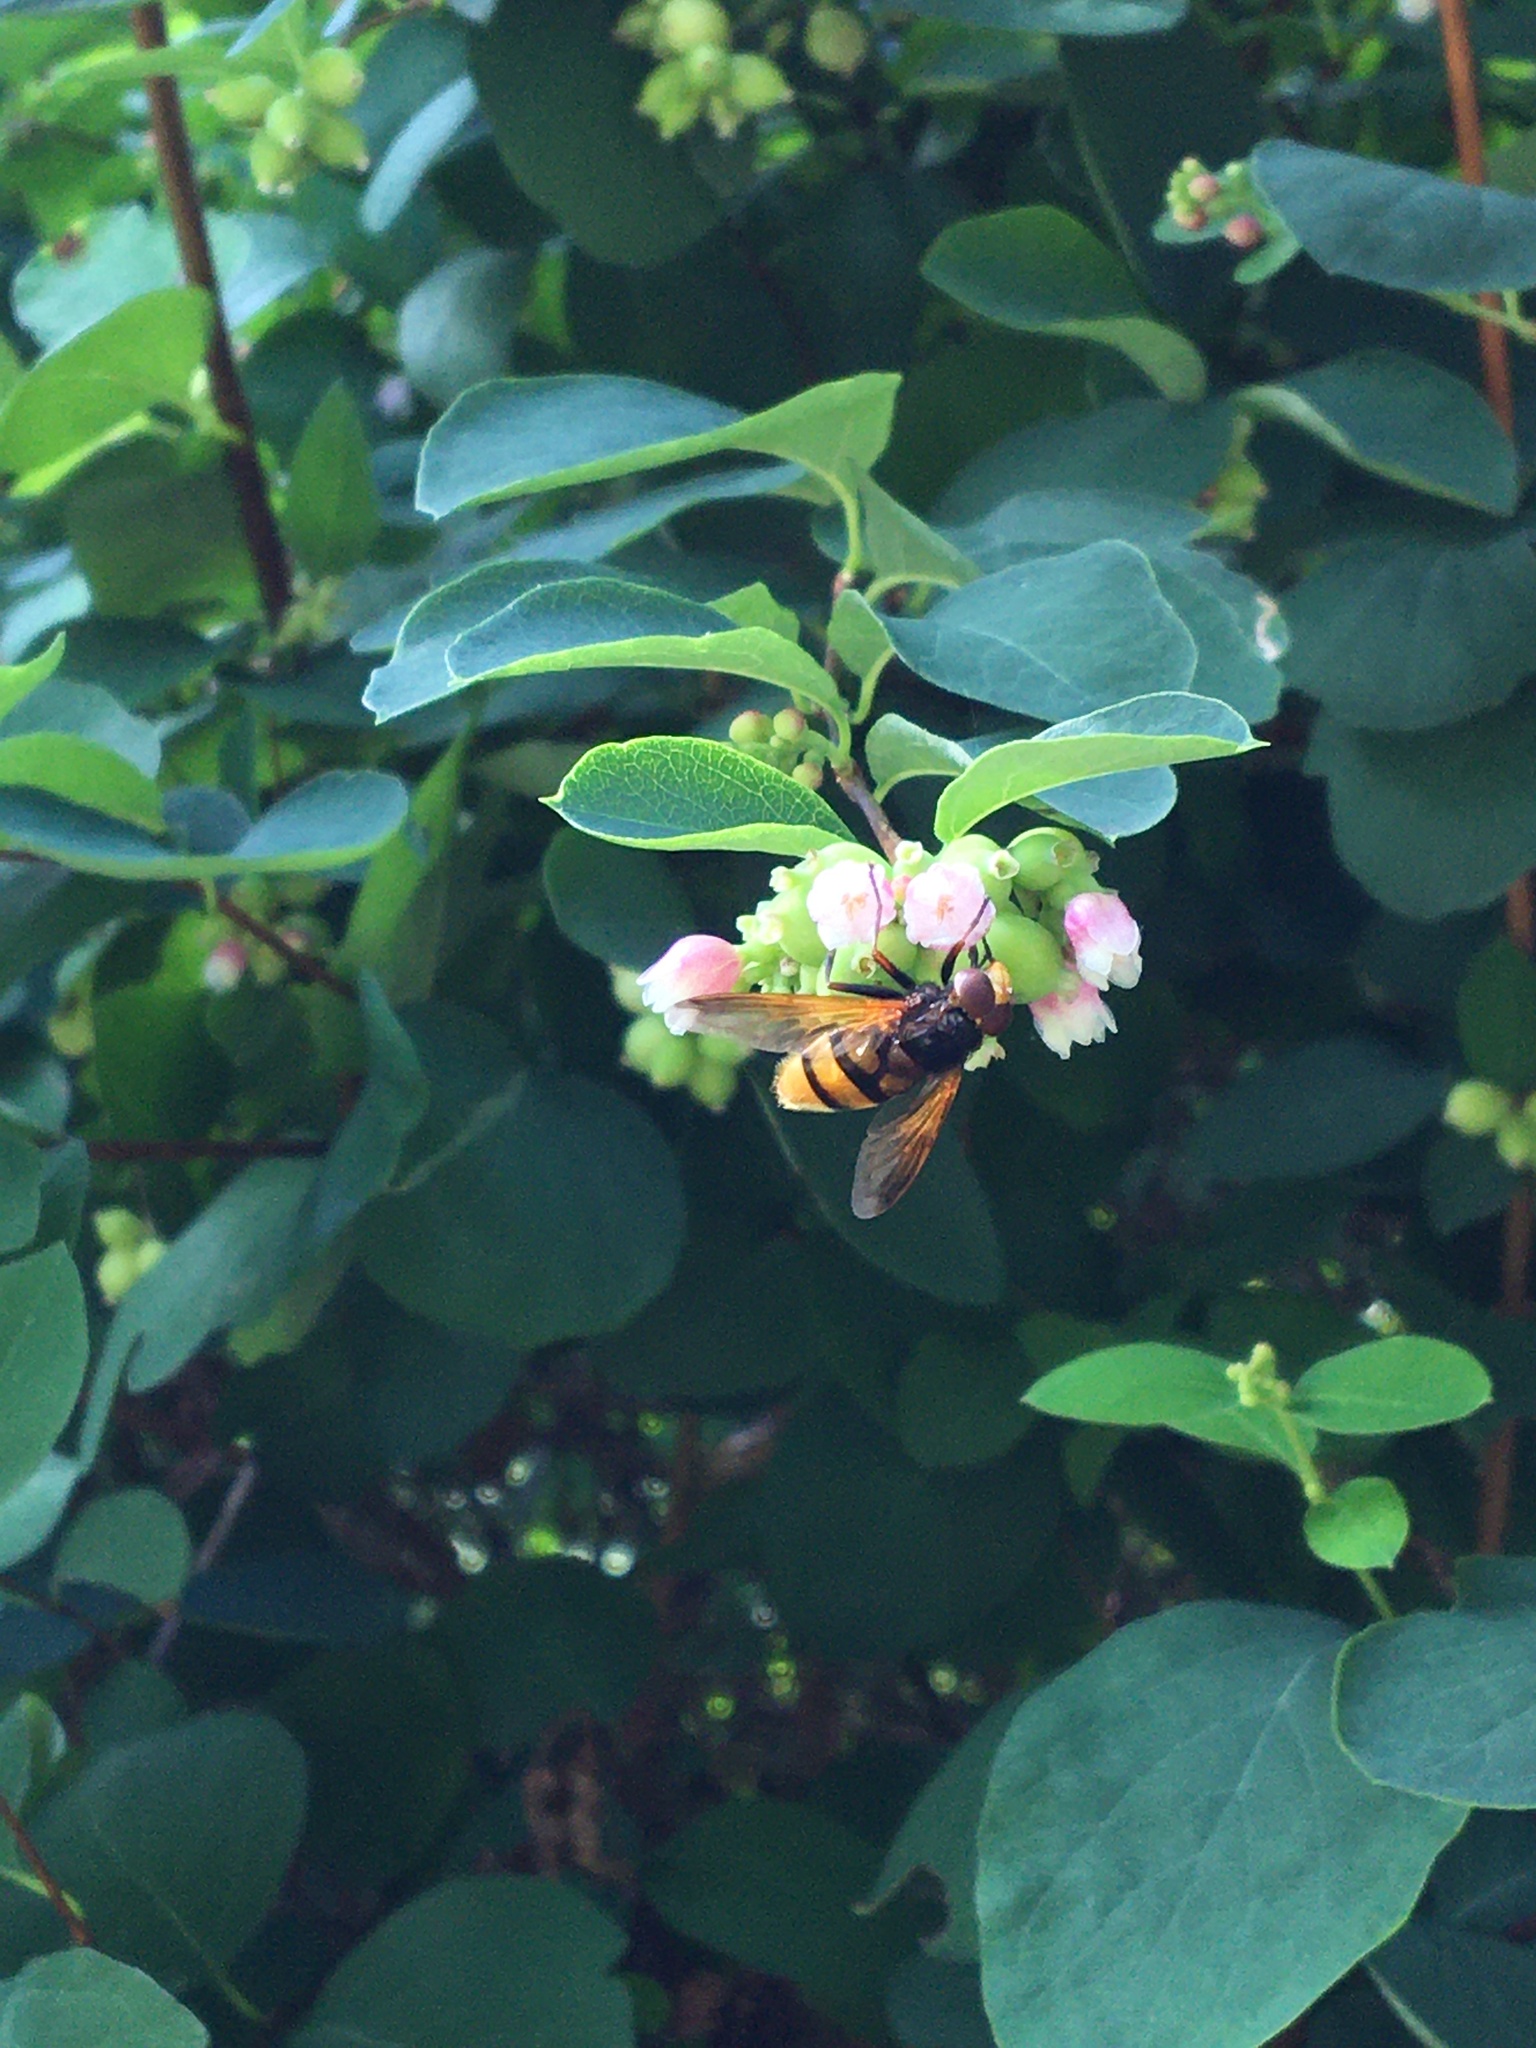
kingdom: Animalia
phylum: Arthropoda
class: Insecta
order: Diptera
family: Syrphidae
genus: Volucella
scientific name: Volucella zonaria
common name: Hornet hoverfly
